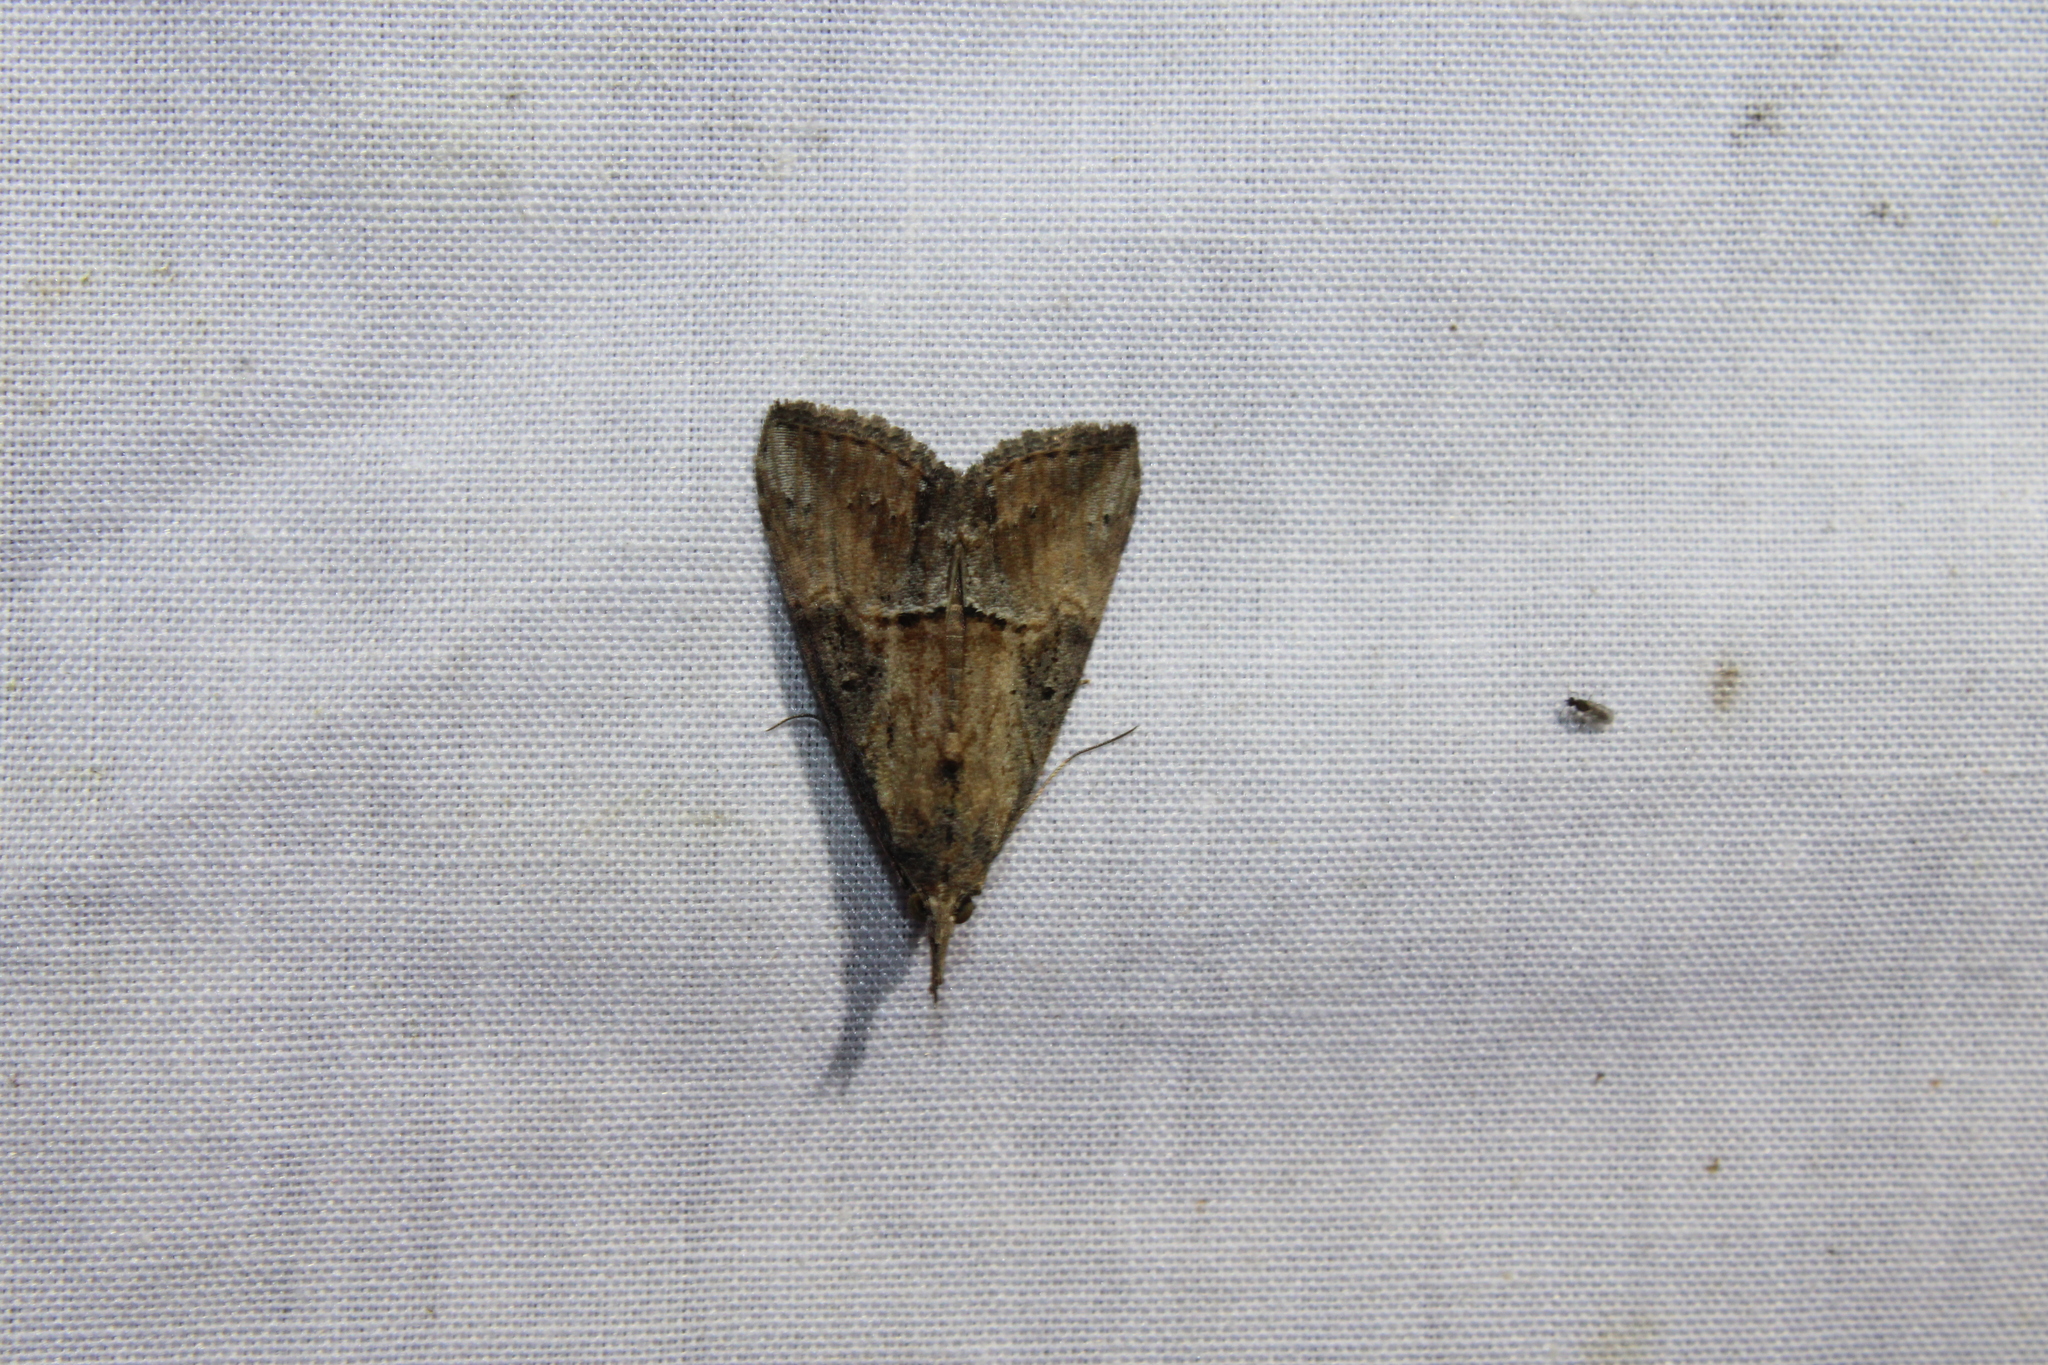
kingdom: Animalia
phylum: Arthropoda
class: Insecta
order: Lepidoptera
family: Erebidae
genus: Hypena
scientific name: Hypena scabra
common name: Green cloverworm
